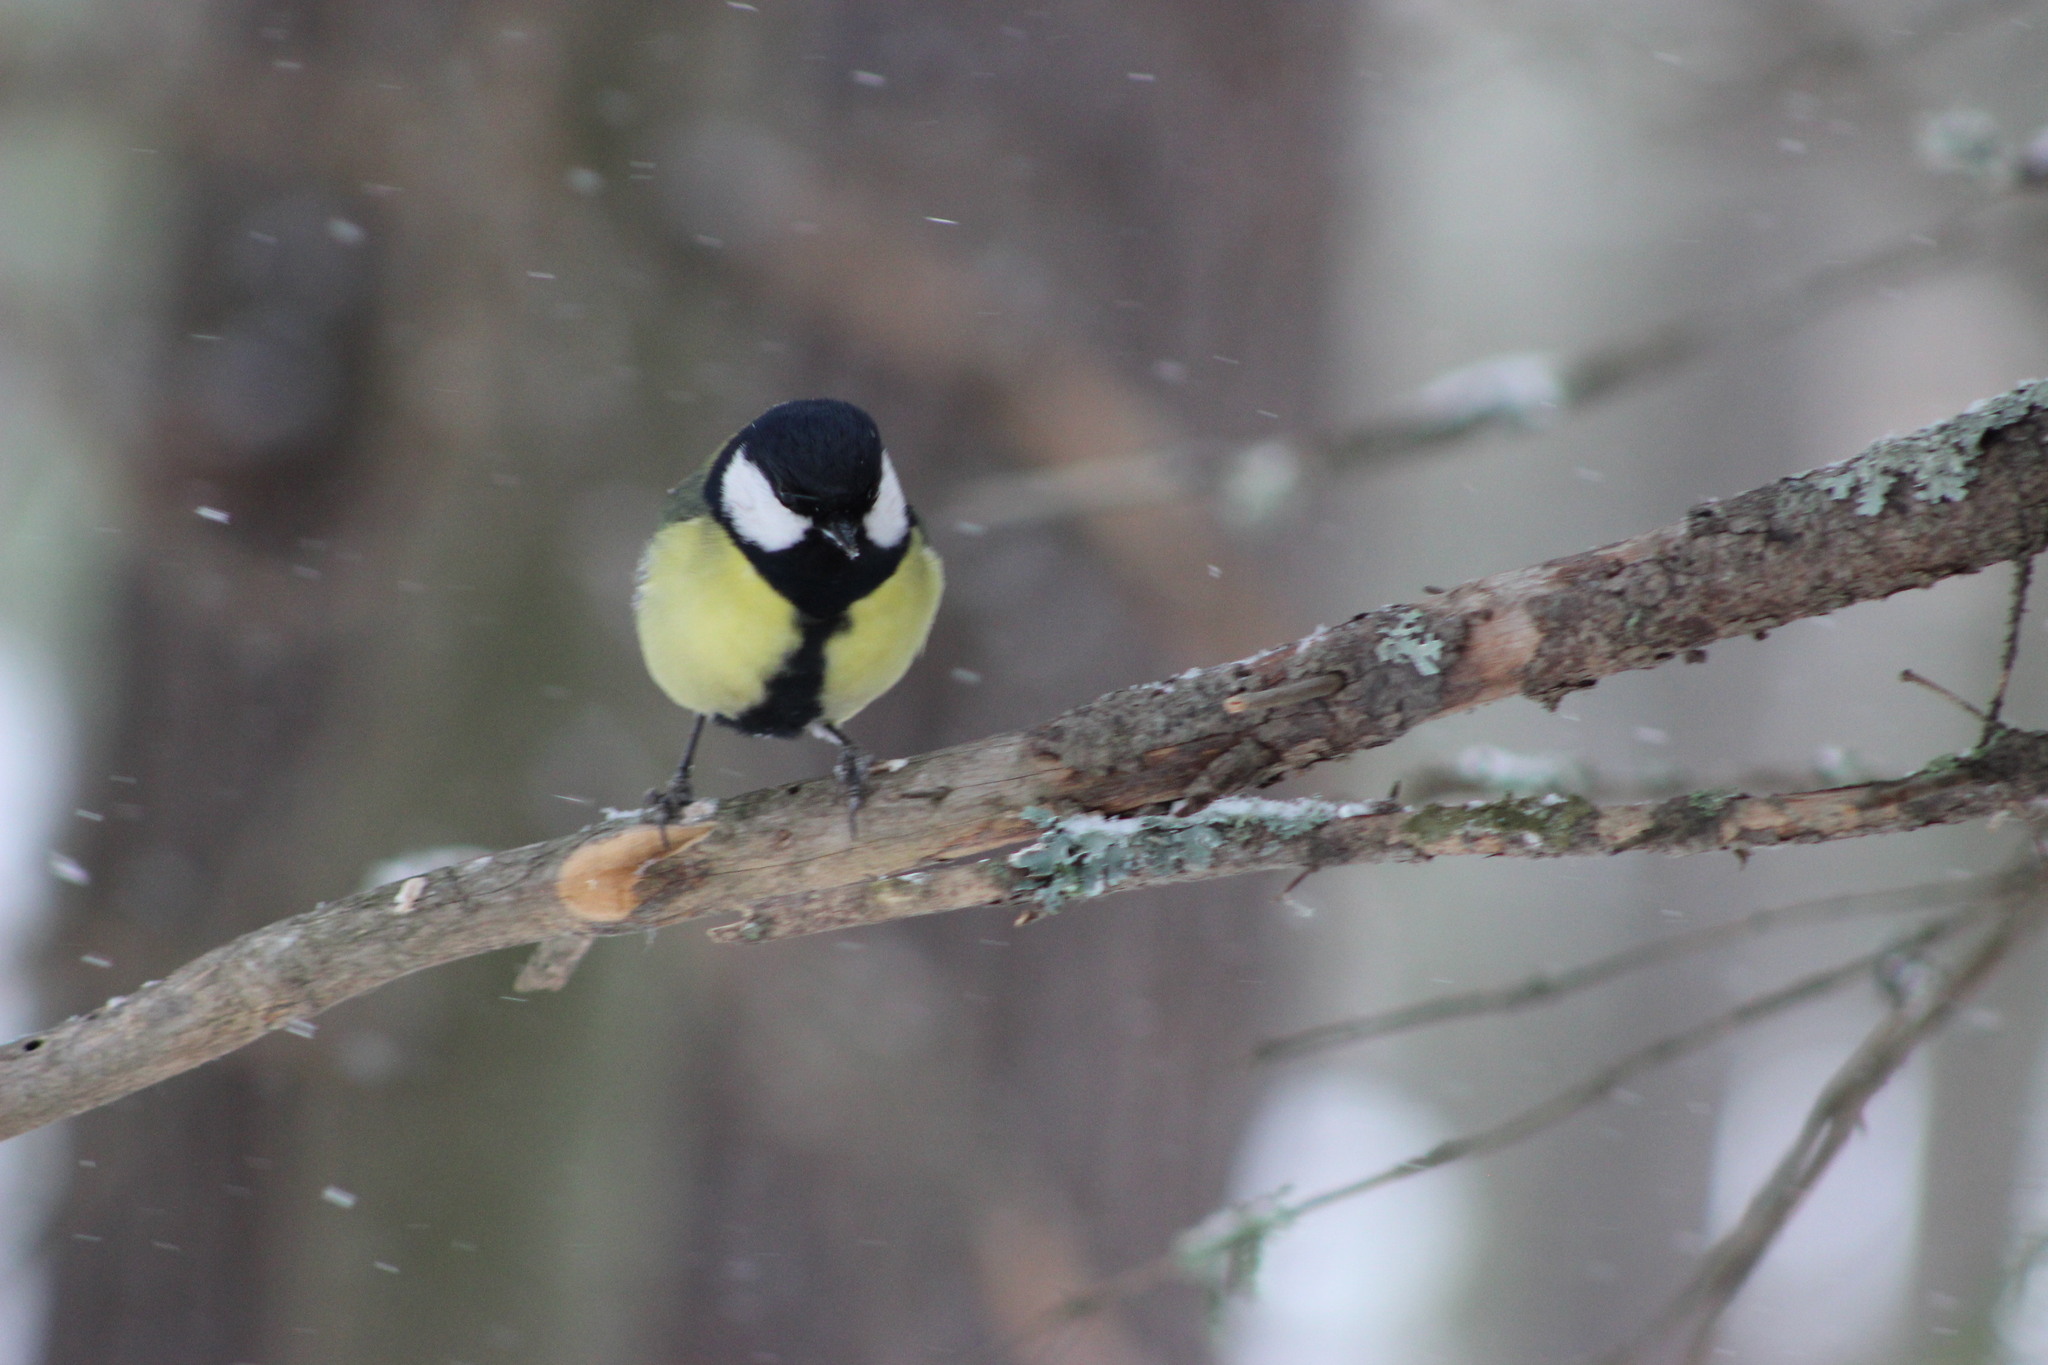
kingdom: Animalia
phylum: Chordata
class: Aves
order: Passeriformes
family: Paridae
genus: Parus
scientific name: Parus major
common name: Great tit
